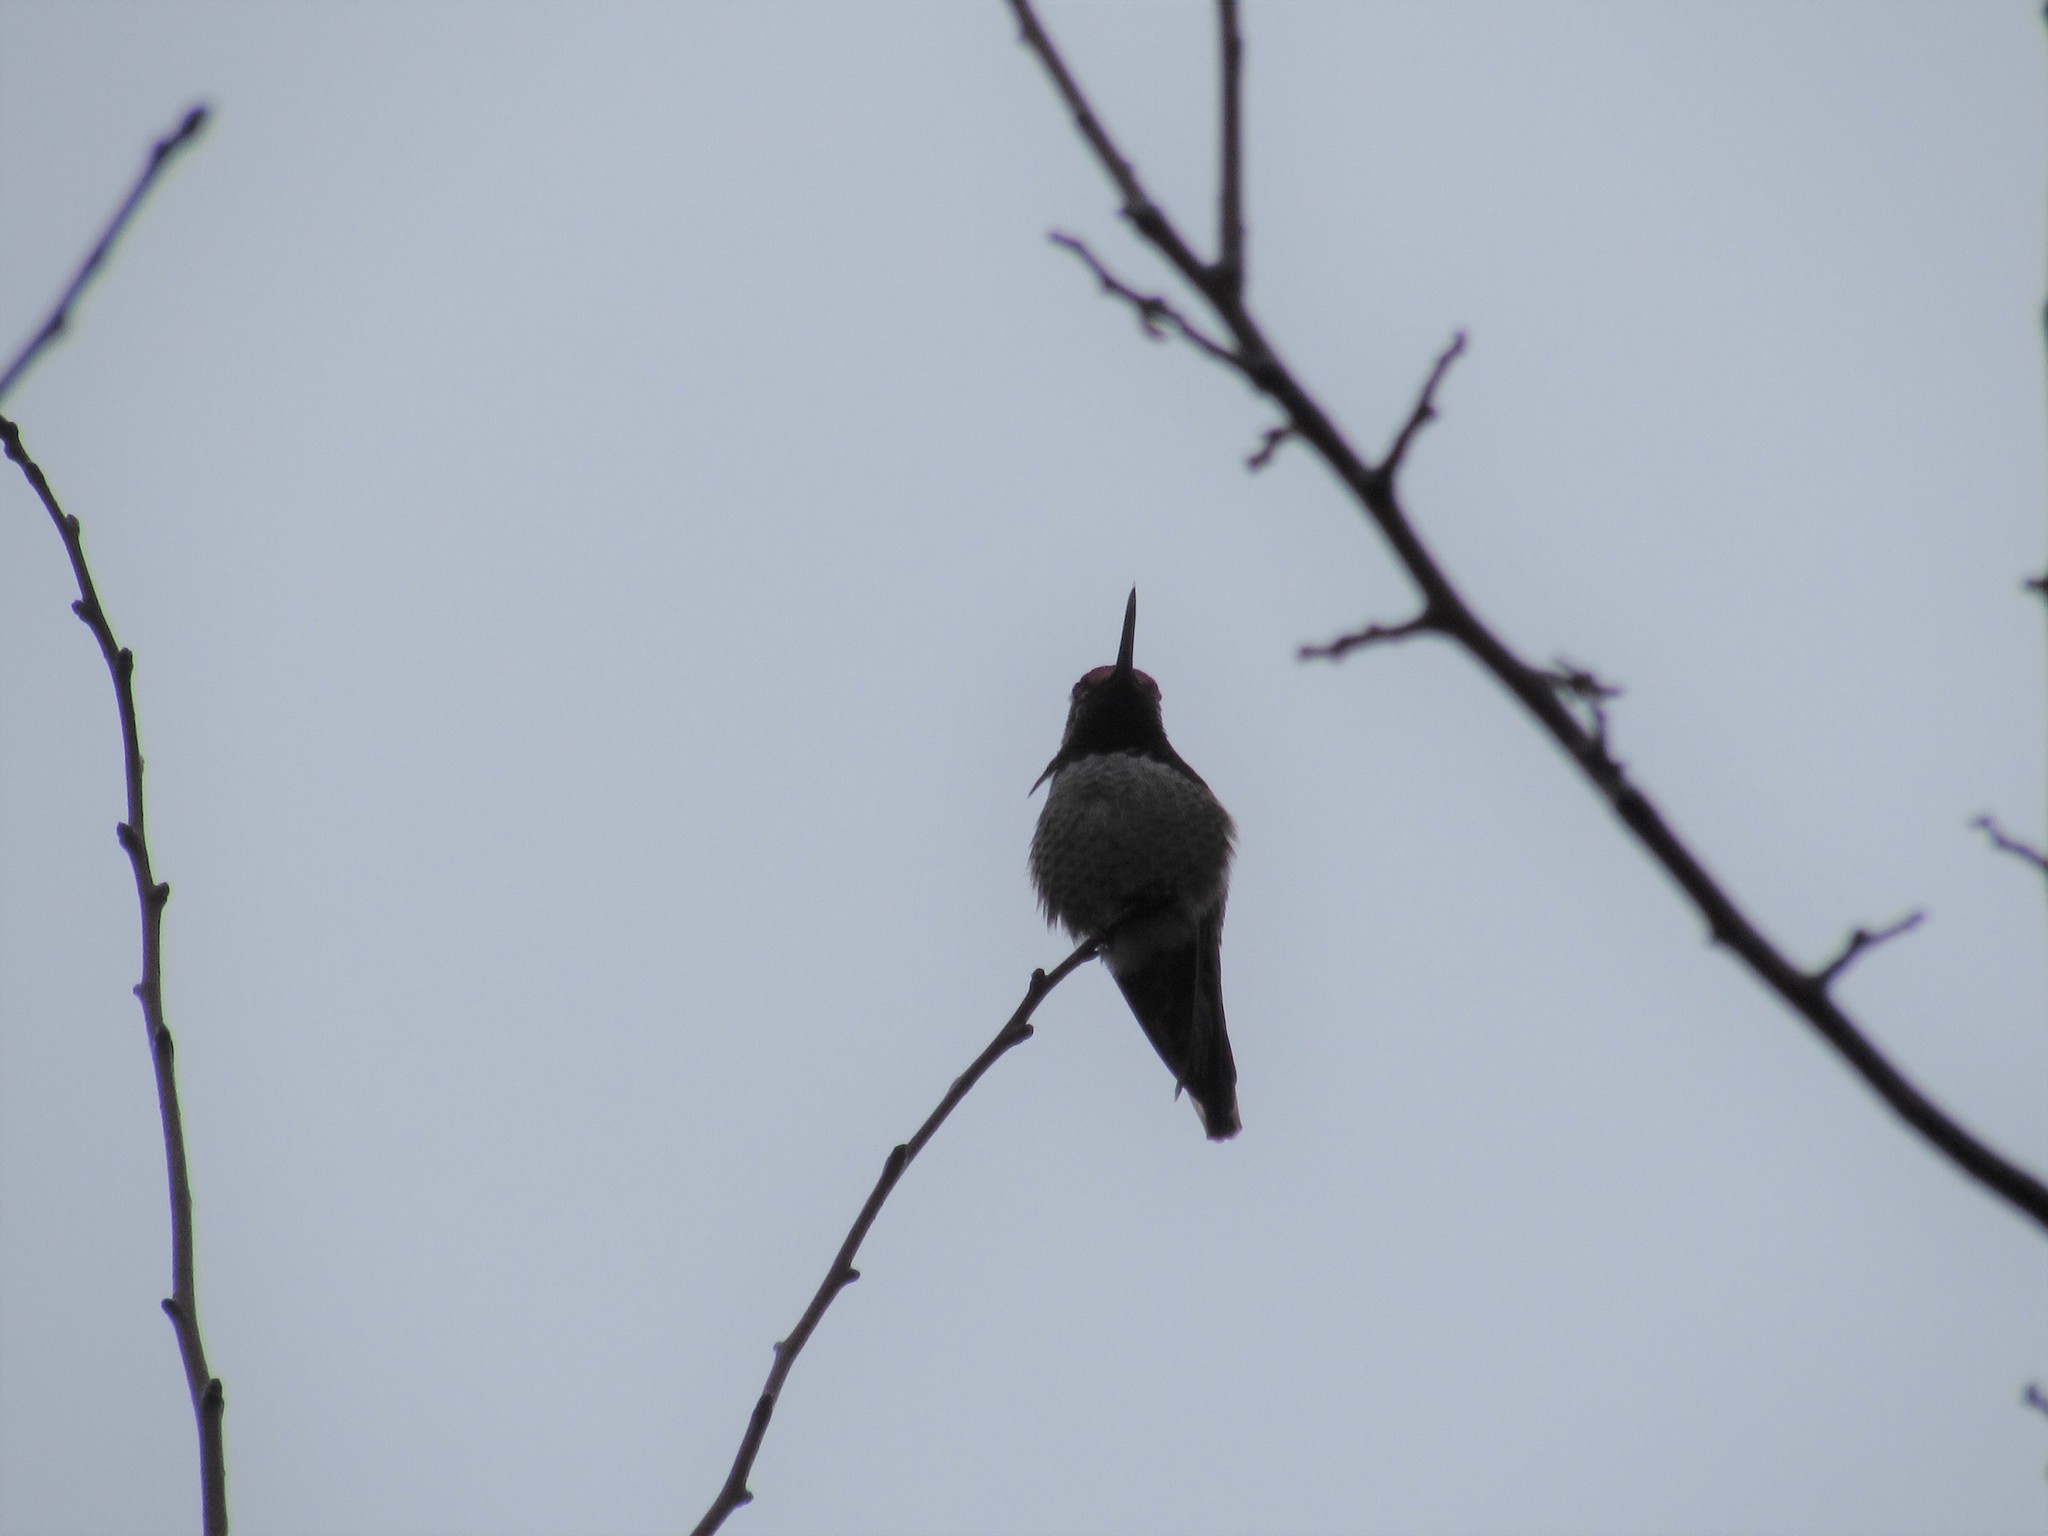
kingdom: Animalia
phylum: Chordata
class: Aves
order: Apodiformes
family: Trochilidae
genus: Calypte
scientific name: Calypte anna
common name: Anna's hummingbird
